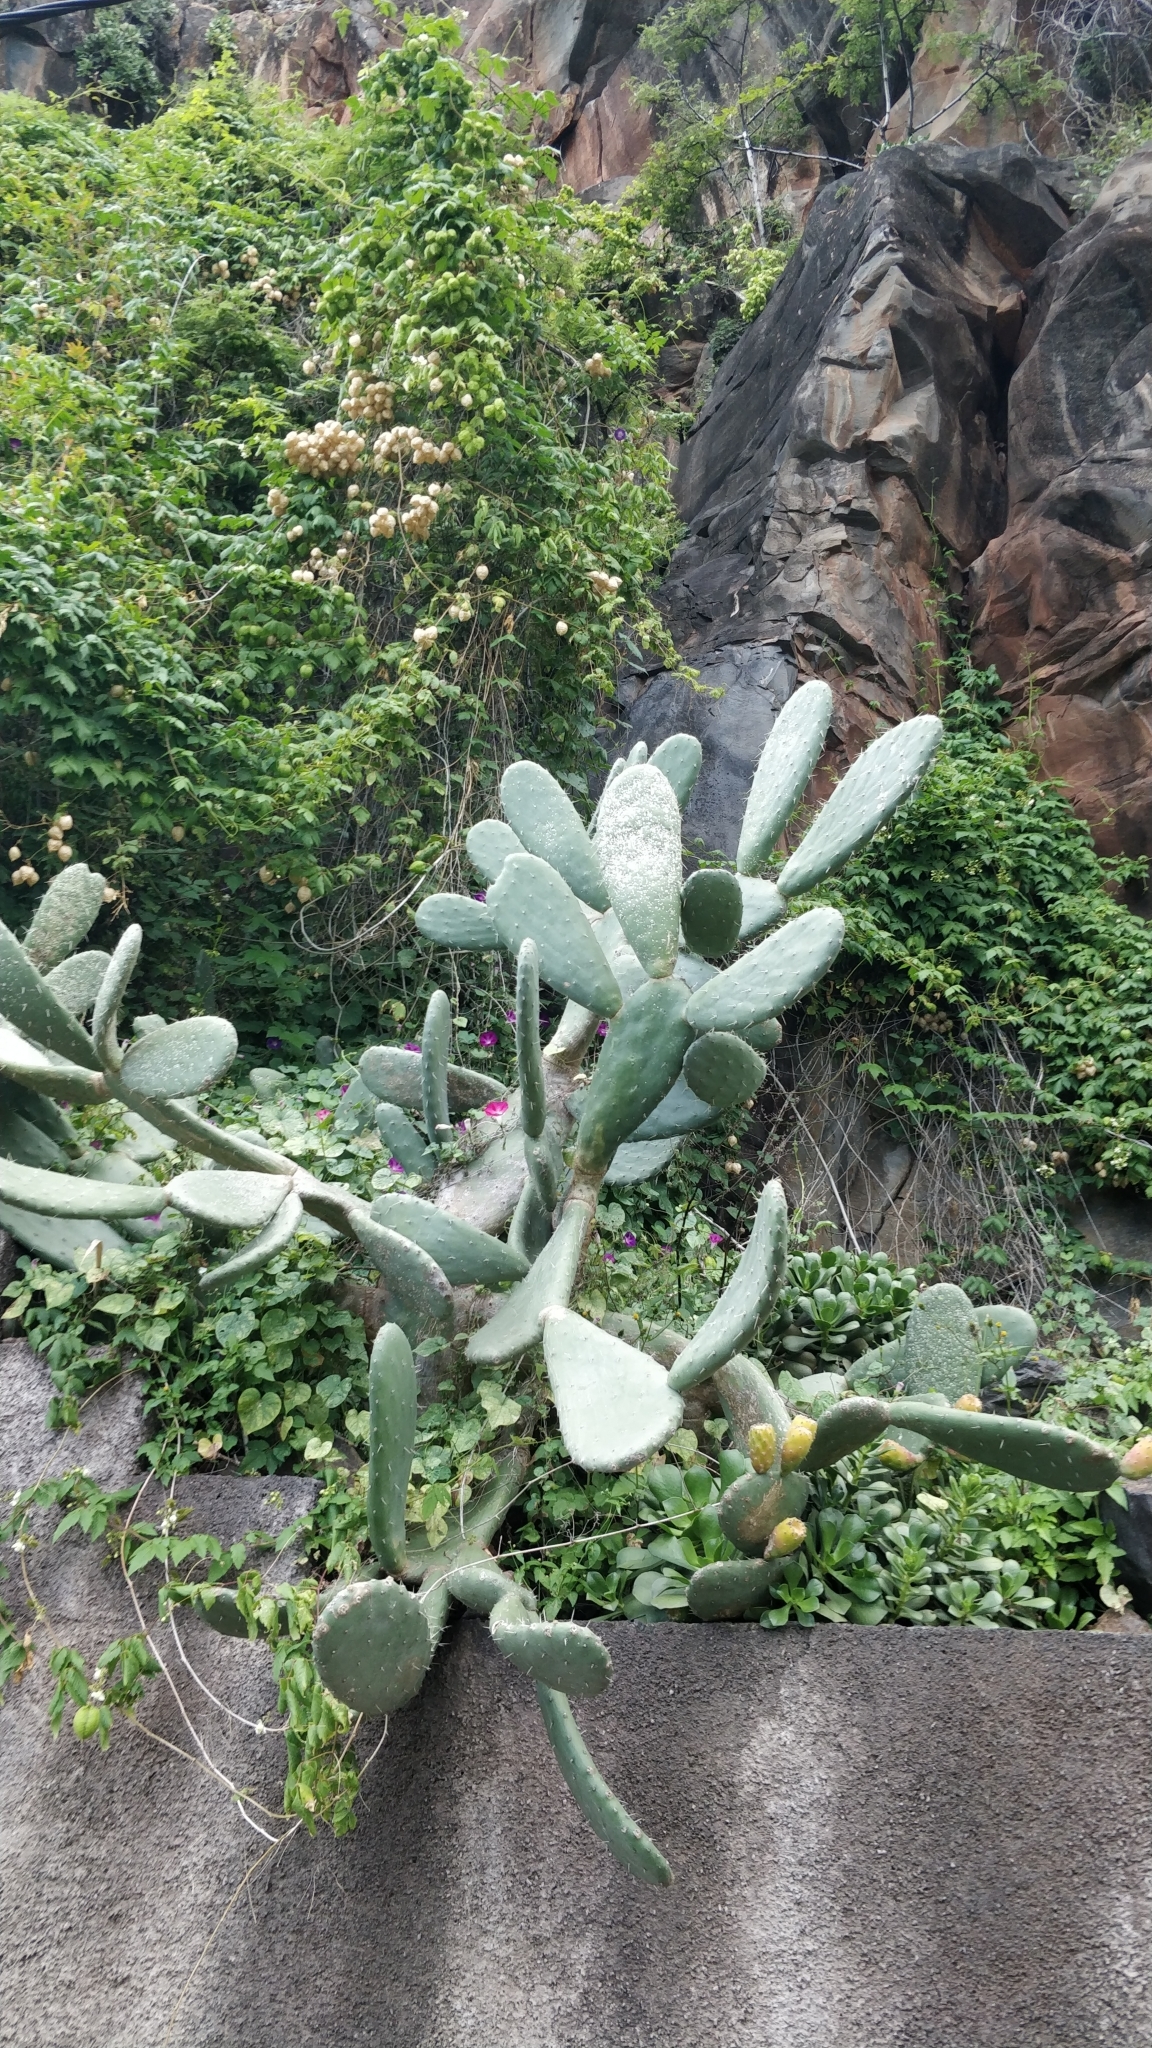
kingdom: Plantae
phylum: Tracheophyta
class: Magnoliopsida
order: Caryophyllales
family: Cactaceae
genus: Opuntia
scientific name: Opuntia ficus-indica
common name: Barbary fig
